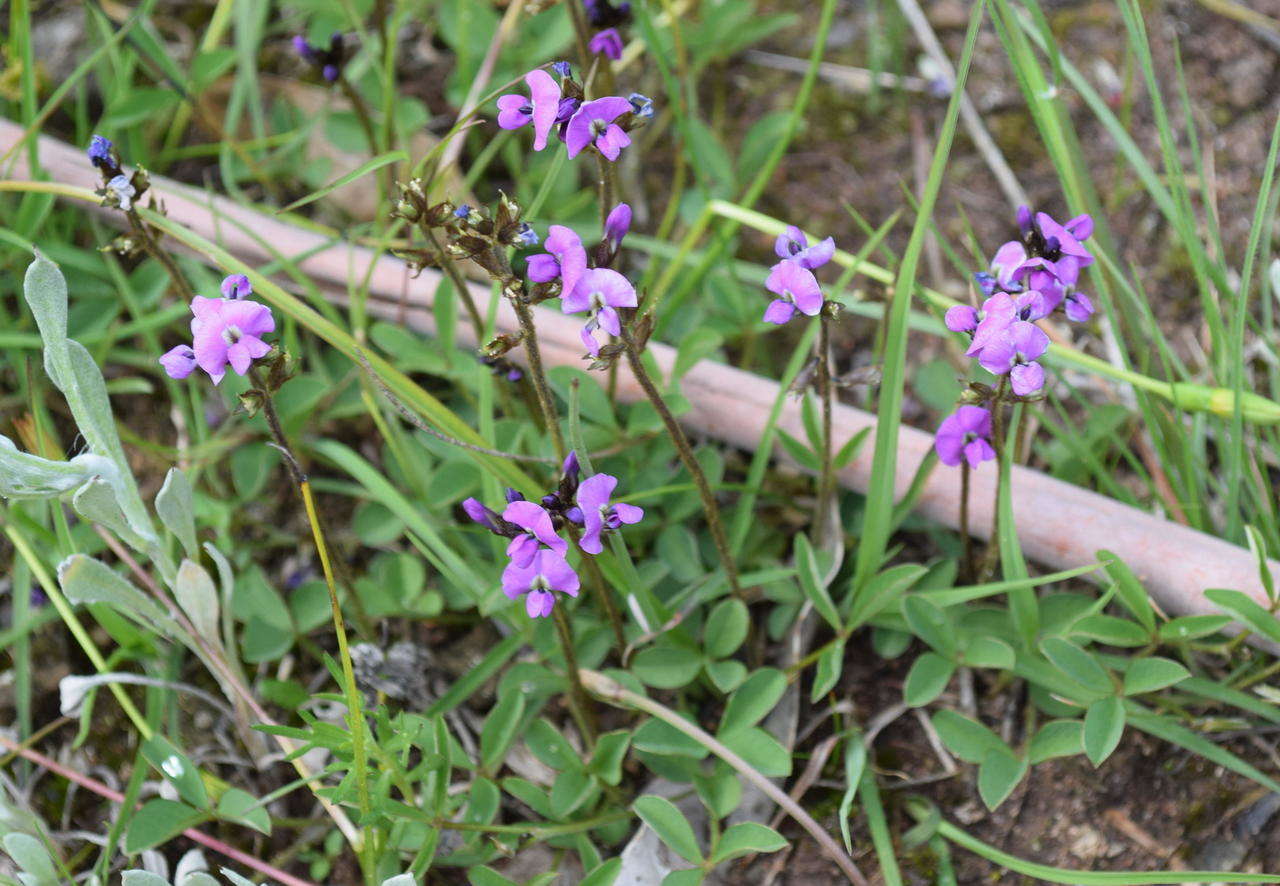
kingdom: Plantae
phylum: Tracheophyta
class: Magnoliopsida
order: Fabales
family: Fabaceae
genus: Glycine
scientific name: Glycine latrobeana
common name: Clover glycine
